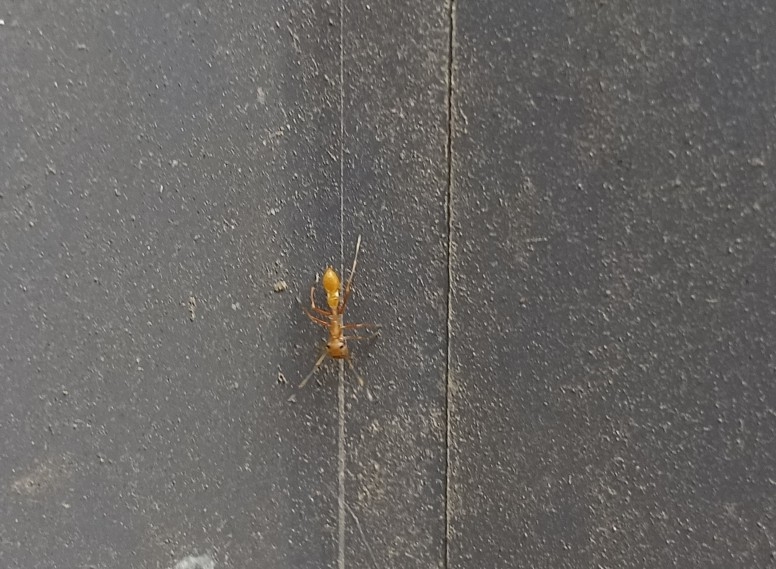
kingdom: Animalia
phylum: Arthropoda
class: Arachnida
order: Araneae
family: Salticidae
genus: Myrmaplata
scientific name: Myrmaplata plataleoides
